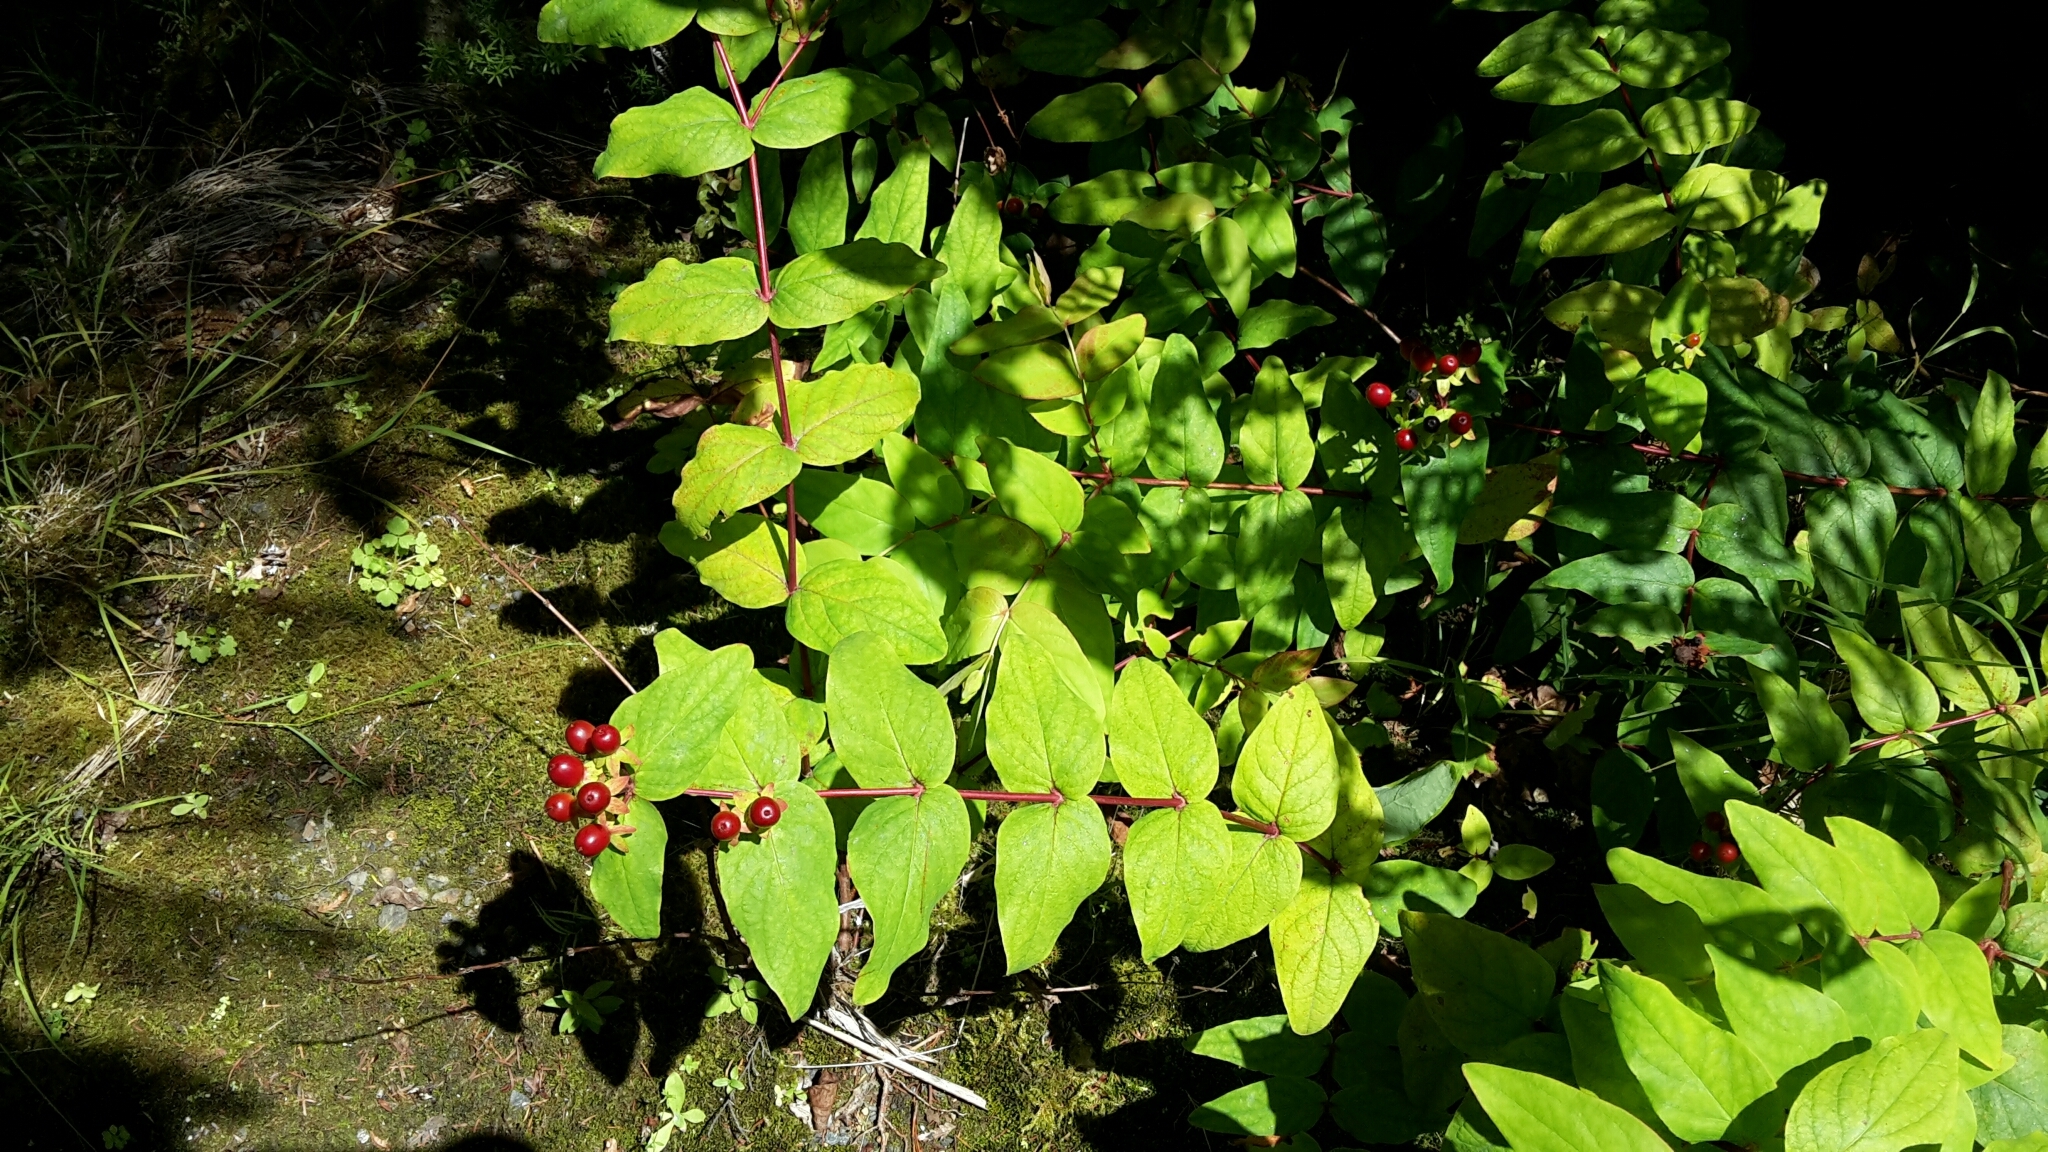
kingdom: Plantae
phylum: Tracheophyta
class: Magnoliopsida
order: Malpighiales
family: Hypericaceae
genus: Hypericum
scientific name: Hypericum androsaemum
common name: Sweet-amber
